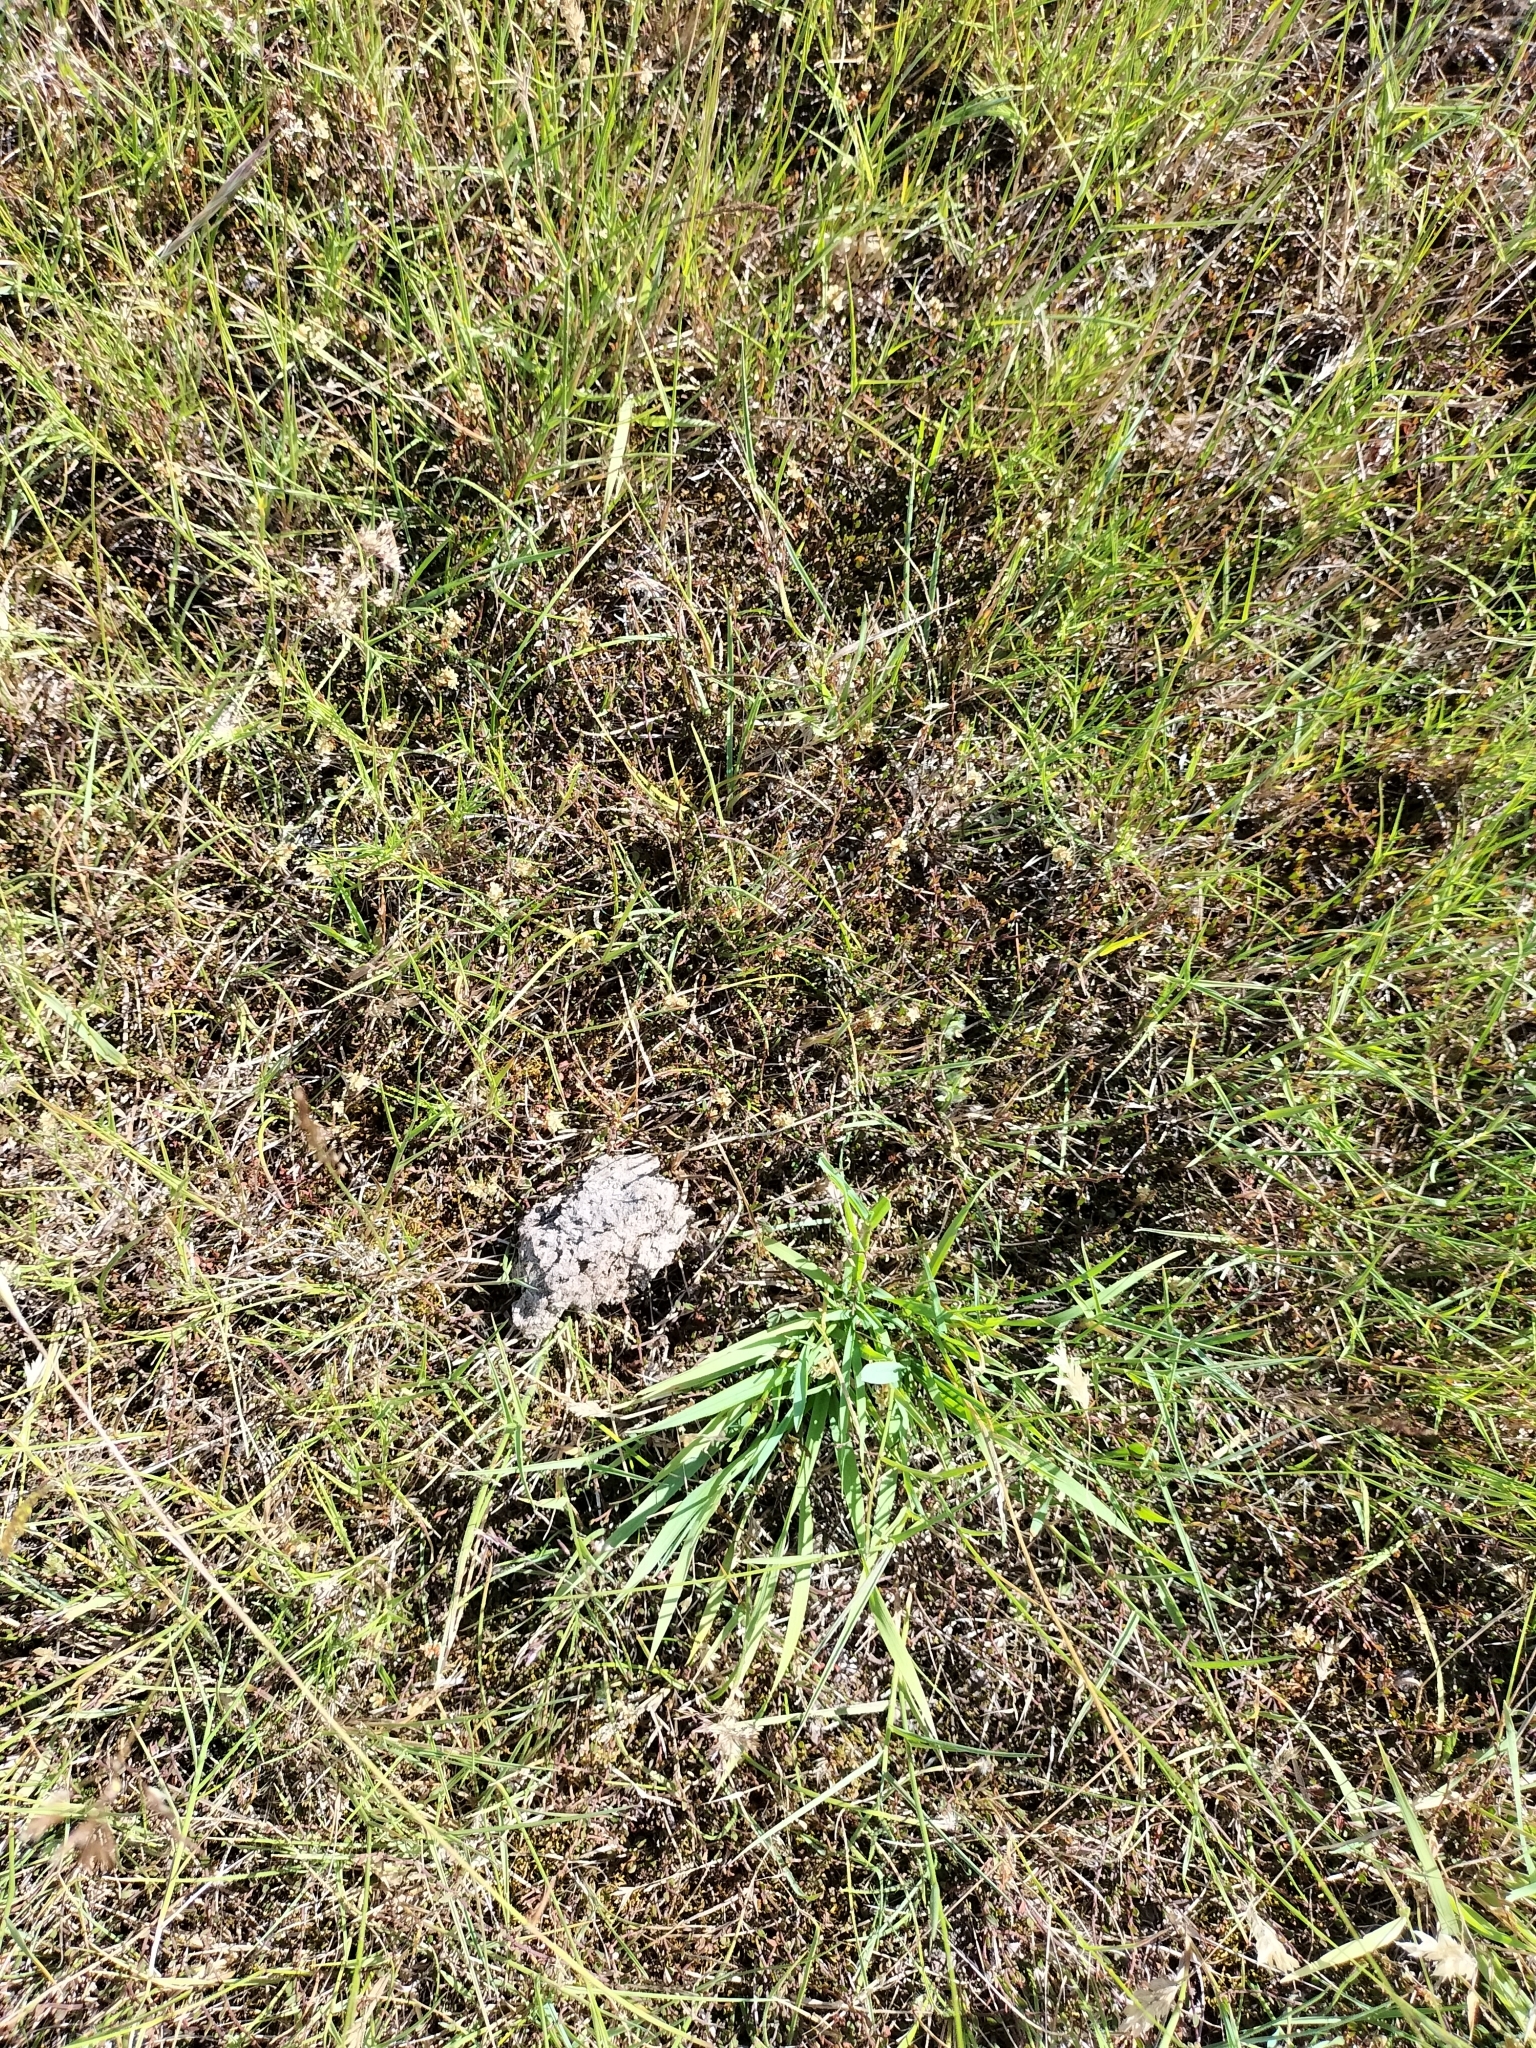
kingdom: Plantae
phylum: Tracheophyta
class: Magnoliopsida
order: Caryophyllales
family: Polygonaceae
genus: Muehlenbeckia
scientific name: Muehlenbeckia
